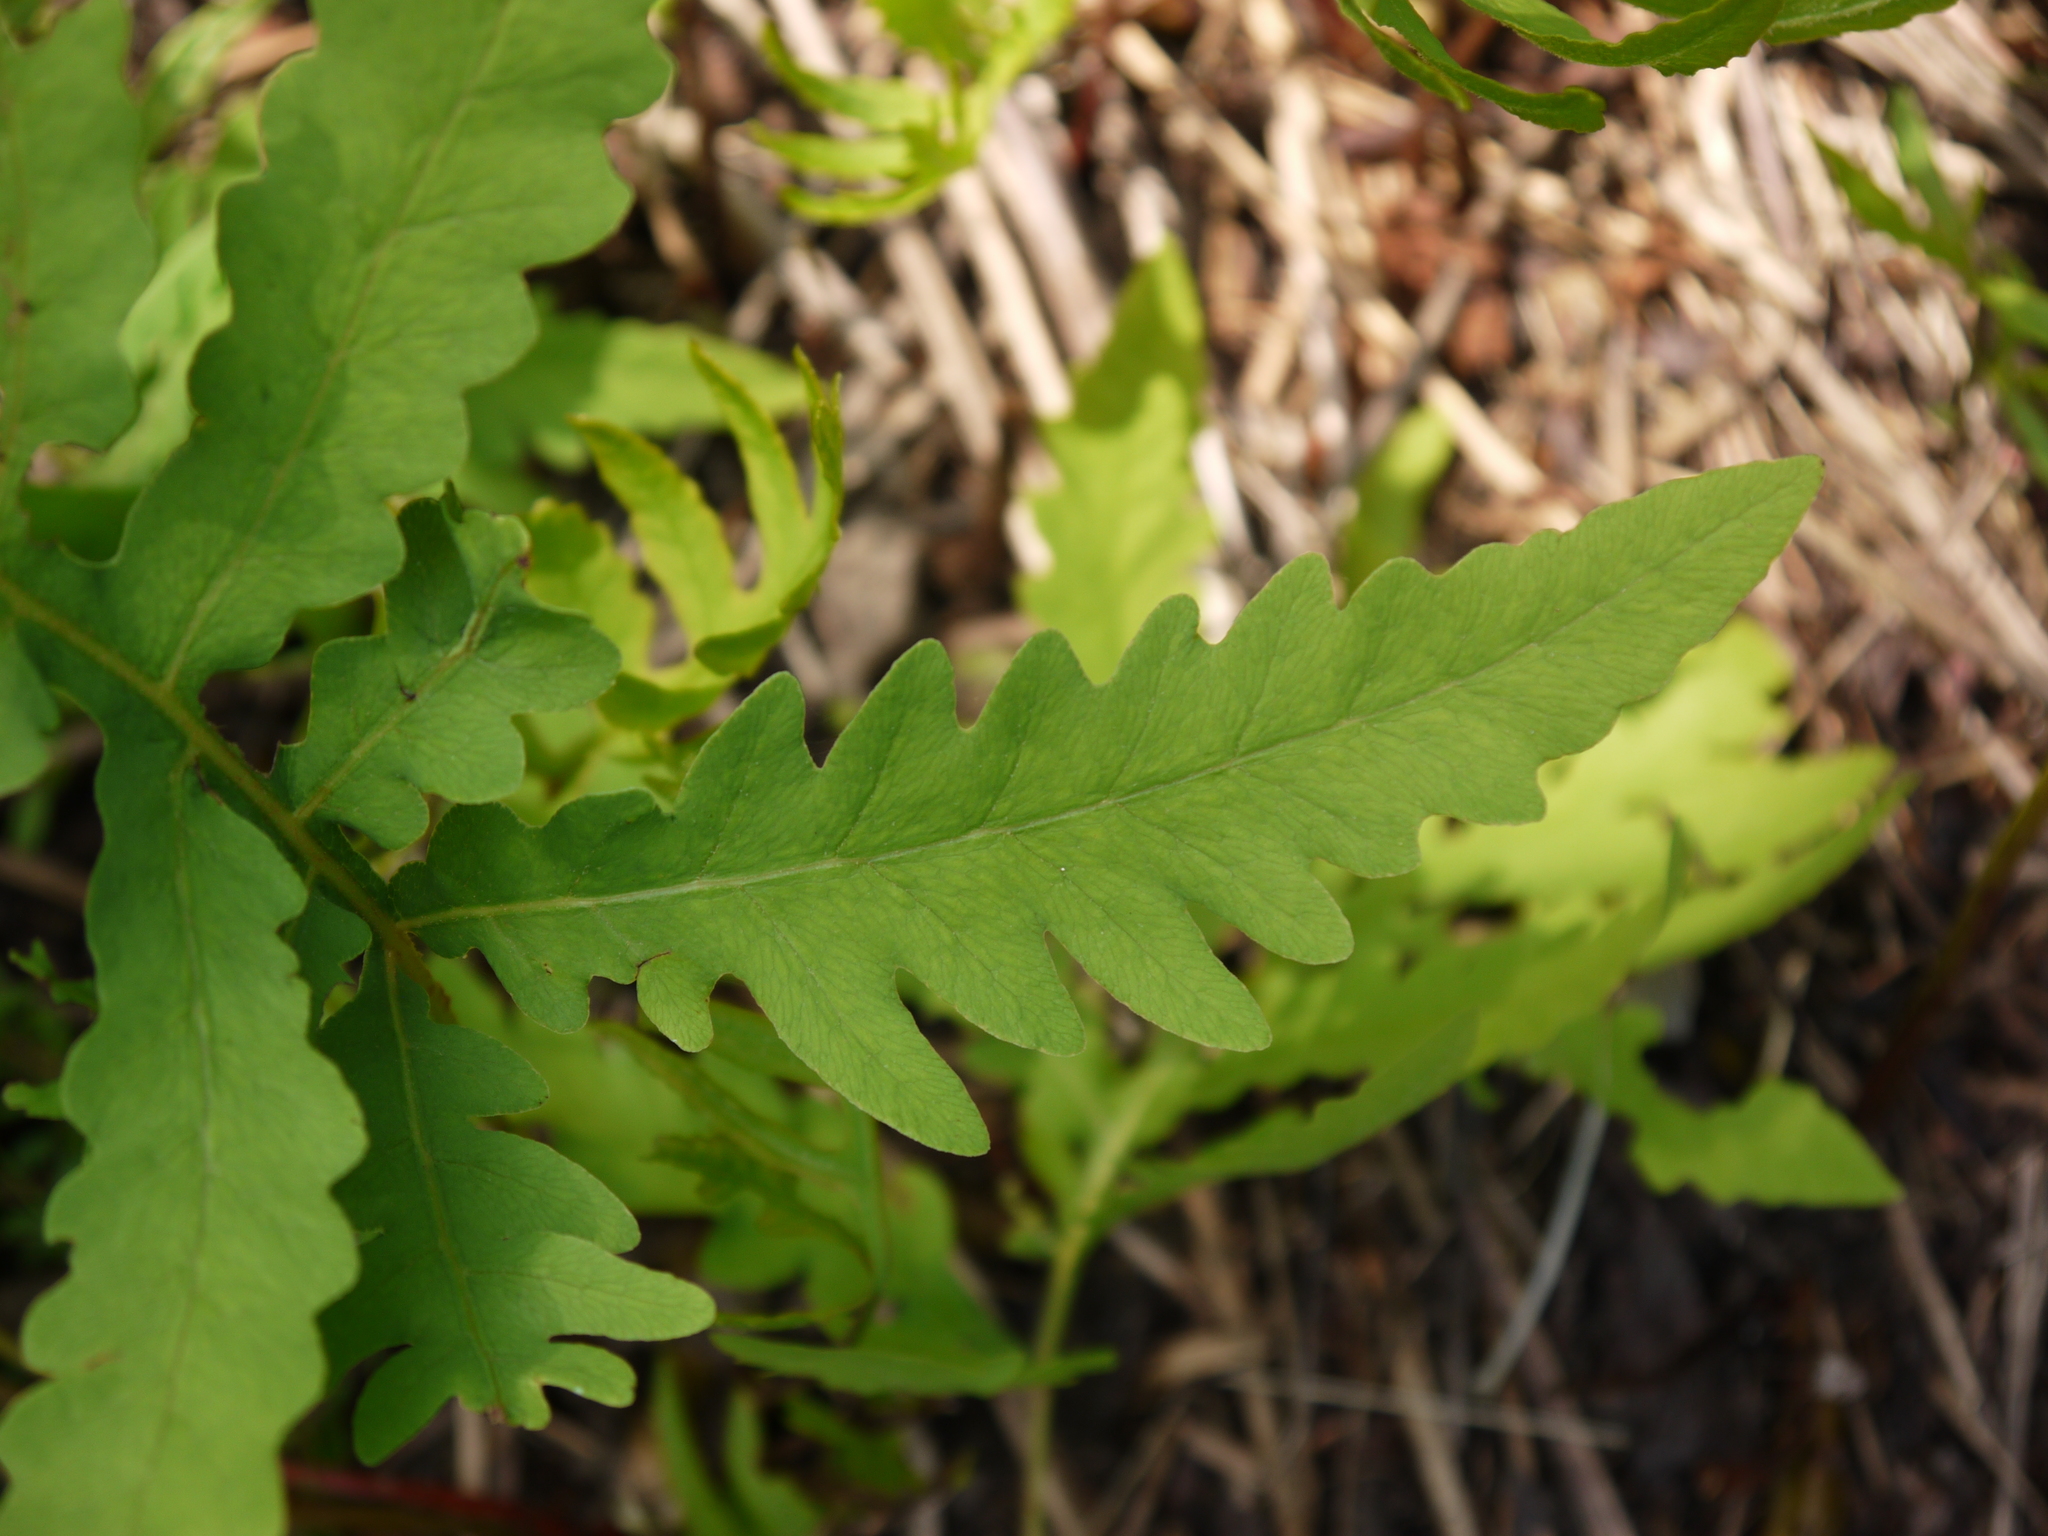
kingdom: Plantae
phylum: Tracheophyta
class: Polypodiopsida
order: Polypodiales
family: Onocleaceae
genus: Onoclea
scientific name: Onoclea sensibilis
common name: Sensitive fern
